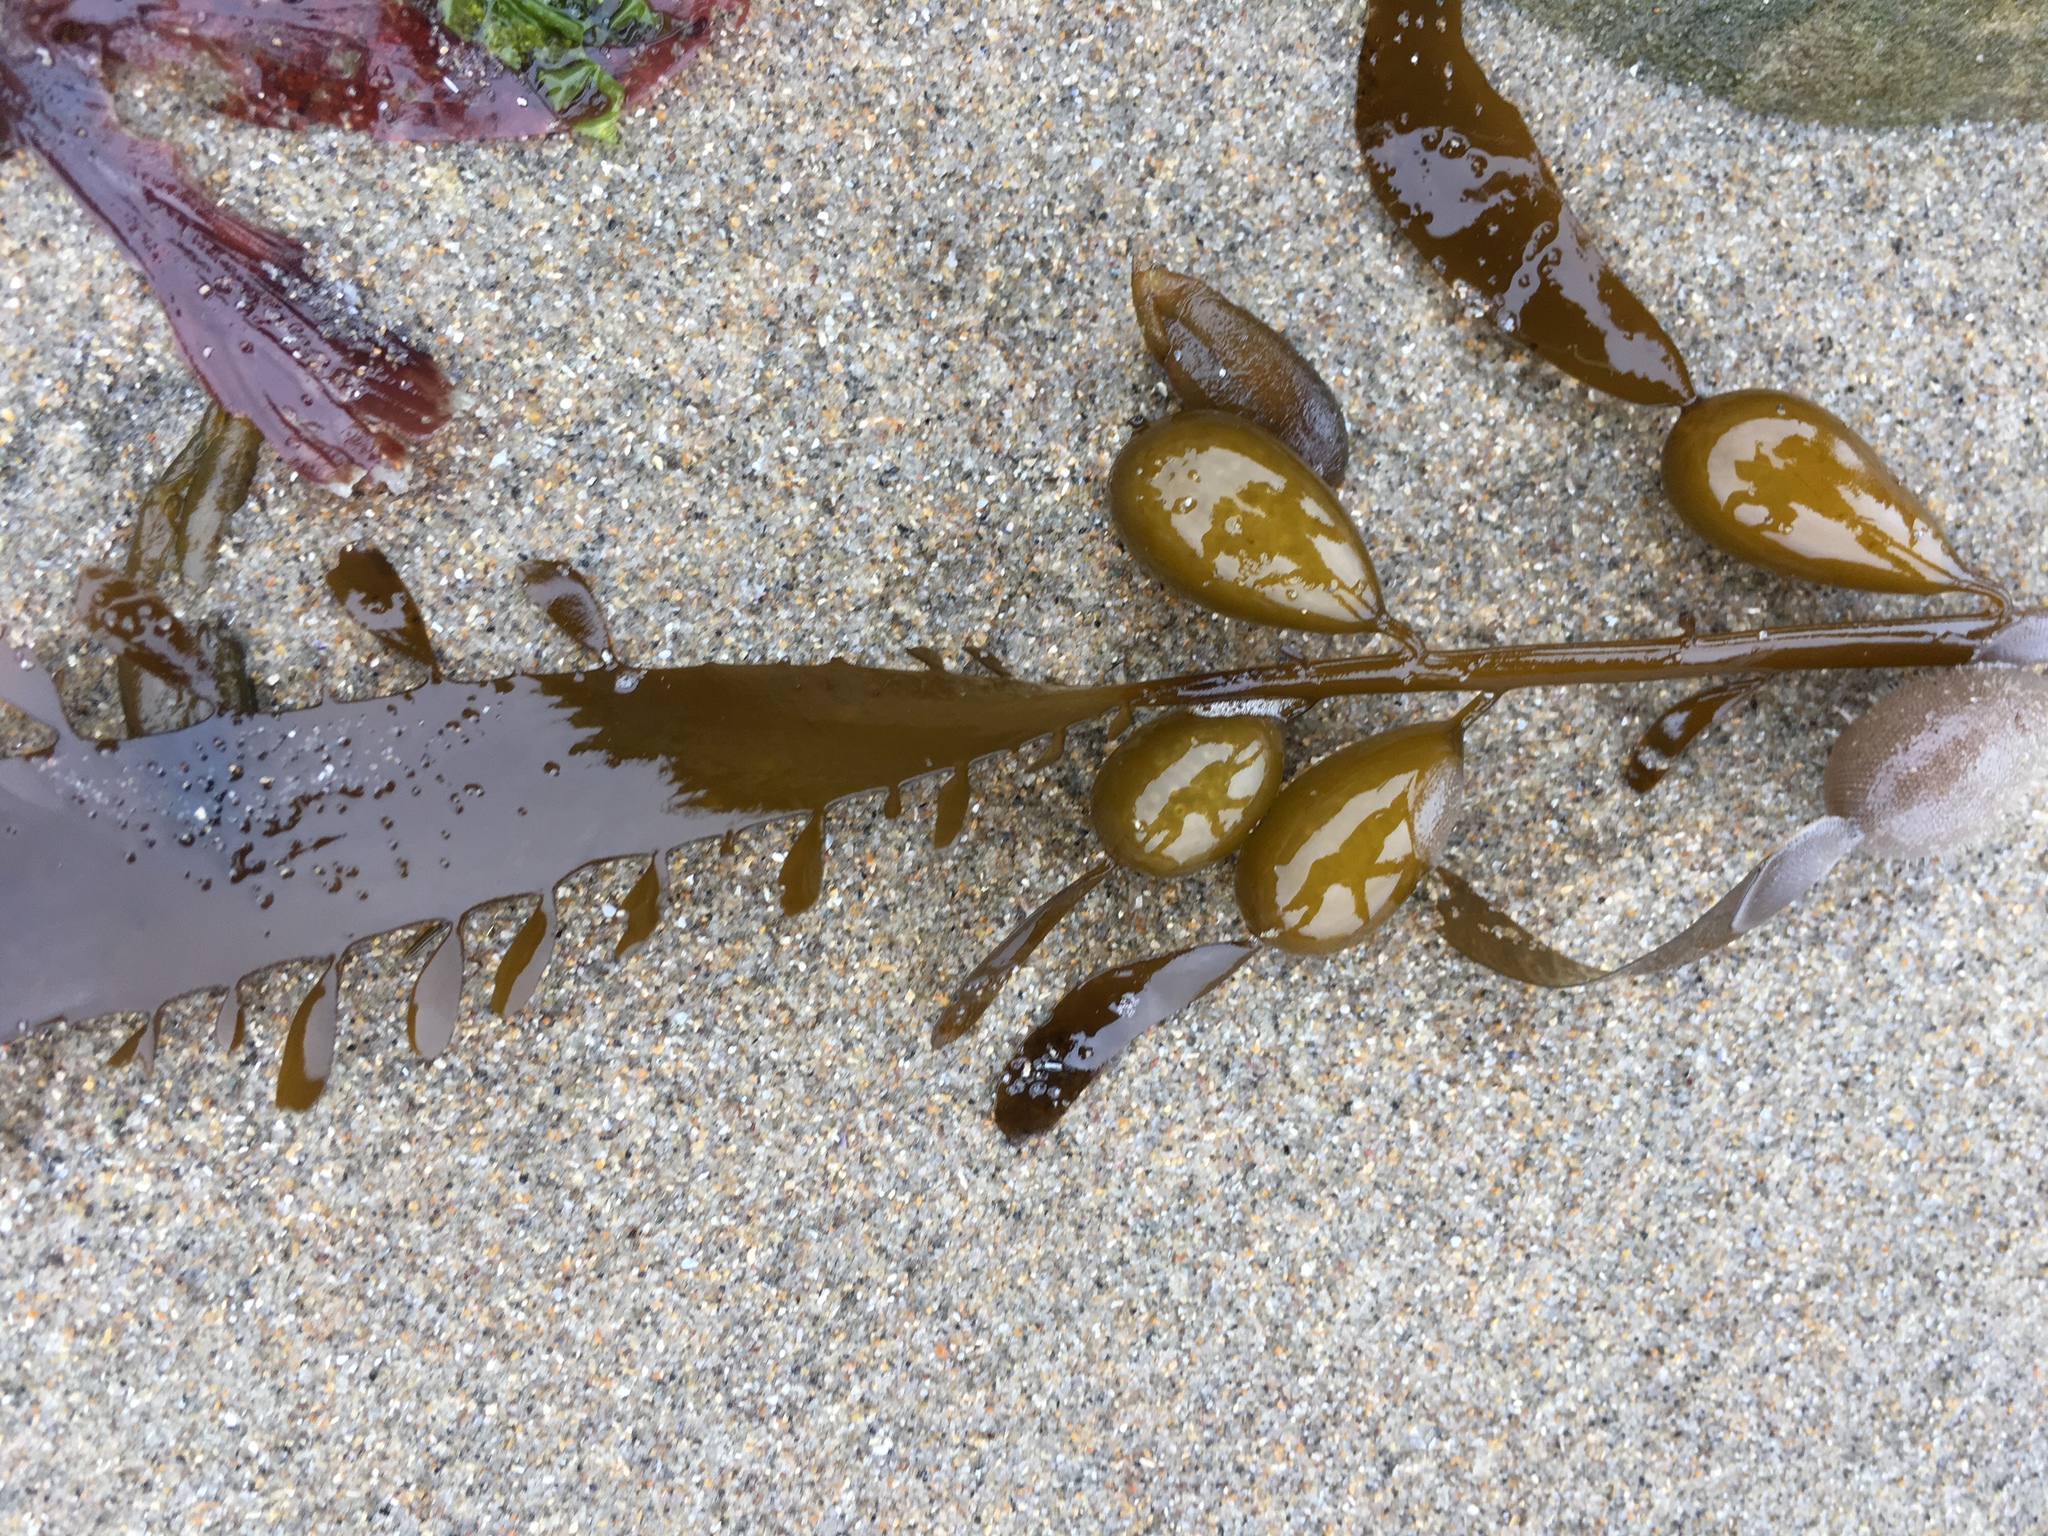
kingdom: Chromista
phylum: Ochrophyta
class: Phaeophyceae
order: Laminariales
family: Lessoniaceae
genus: Egregia
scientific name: Egregia menziesii
